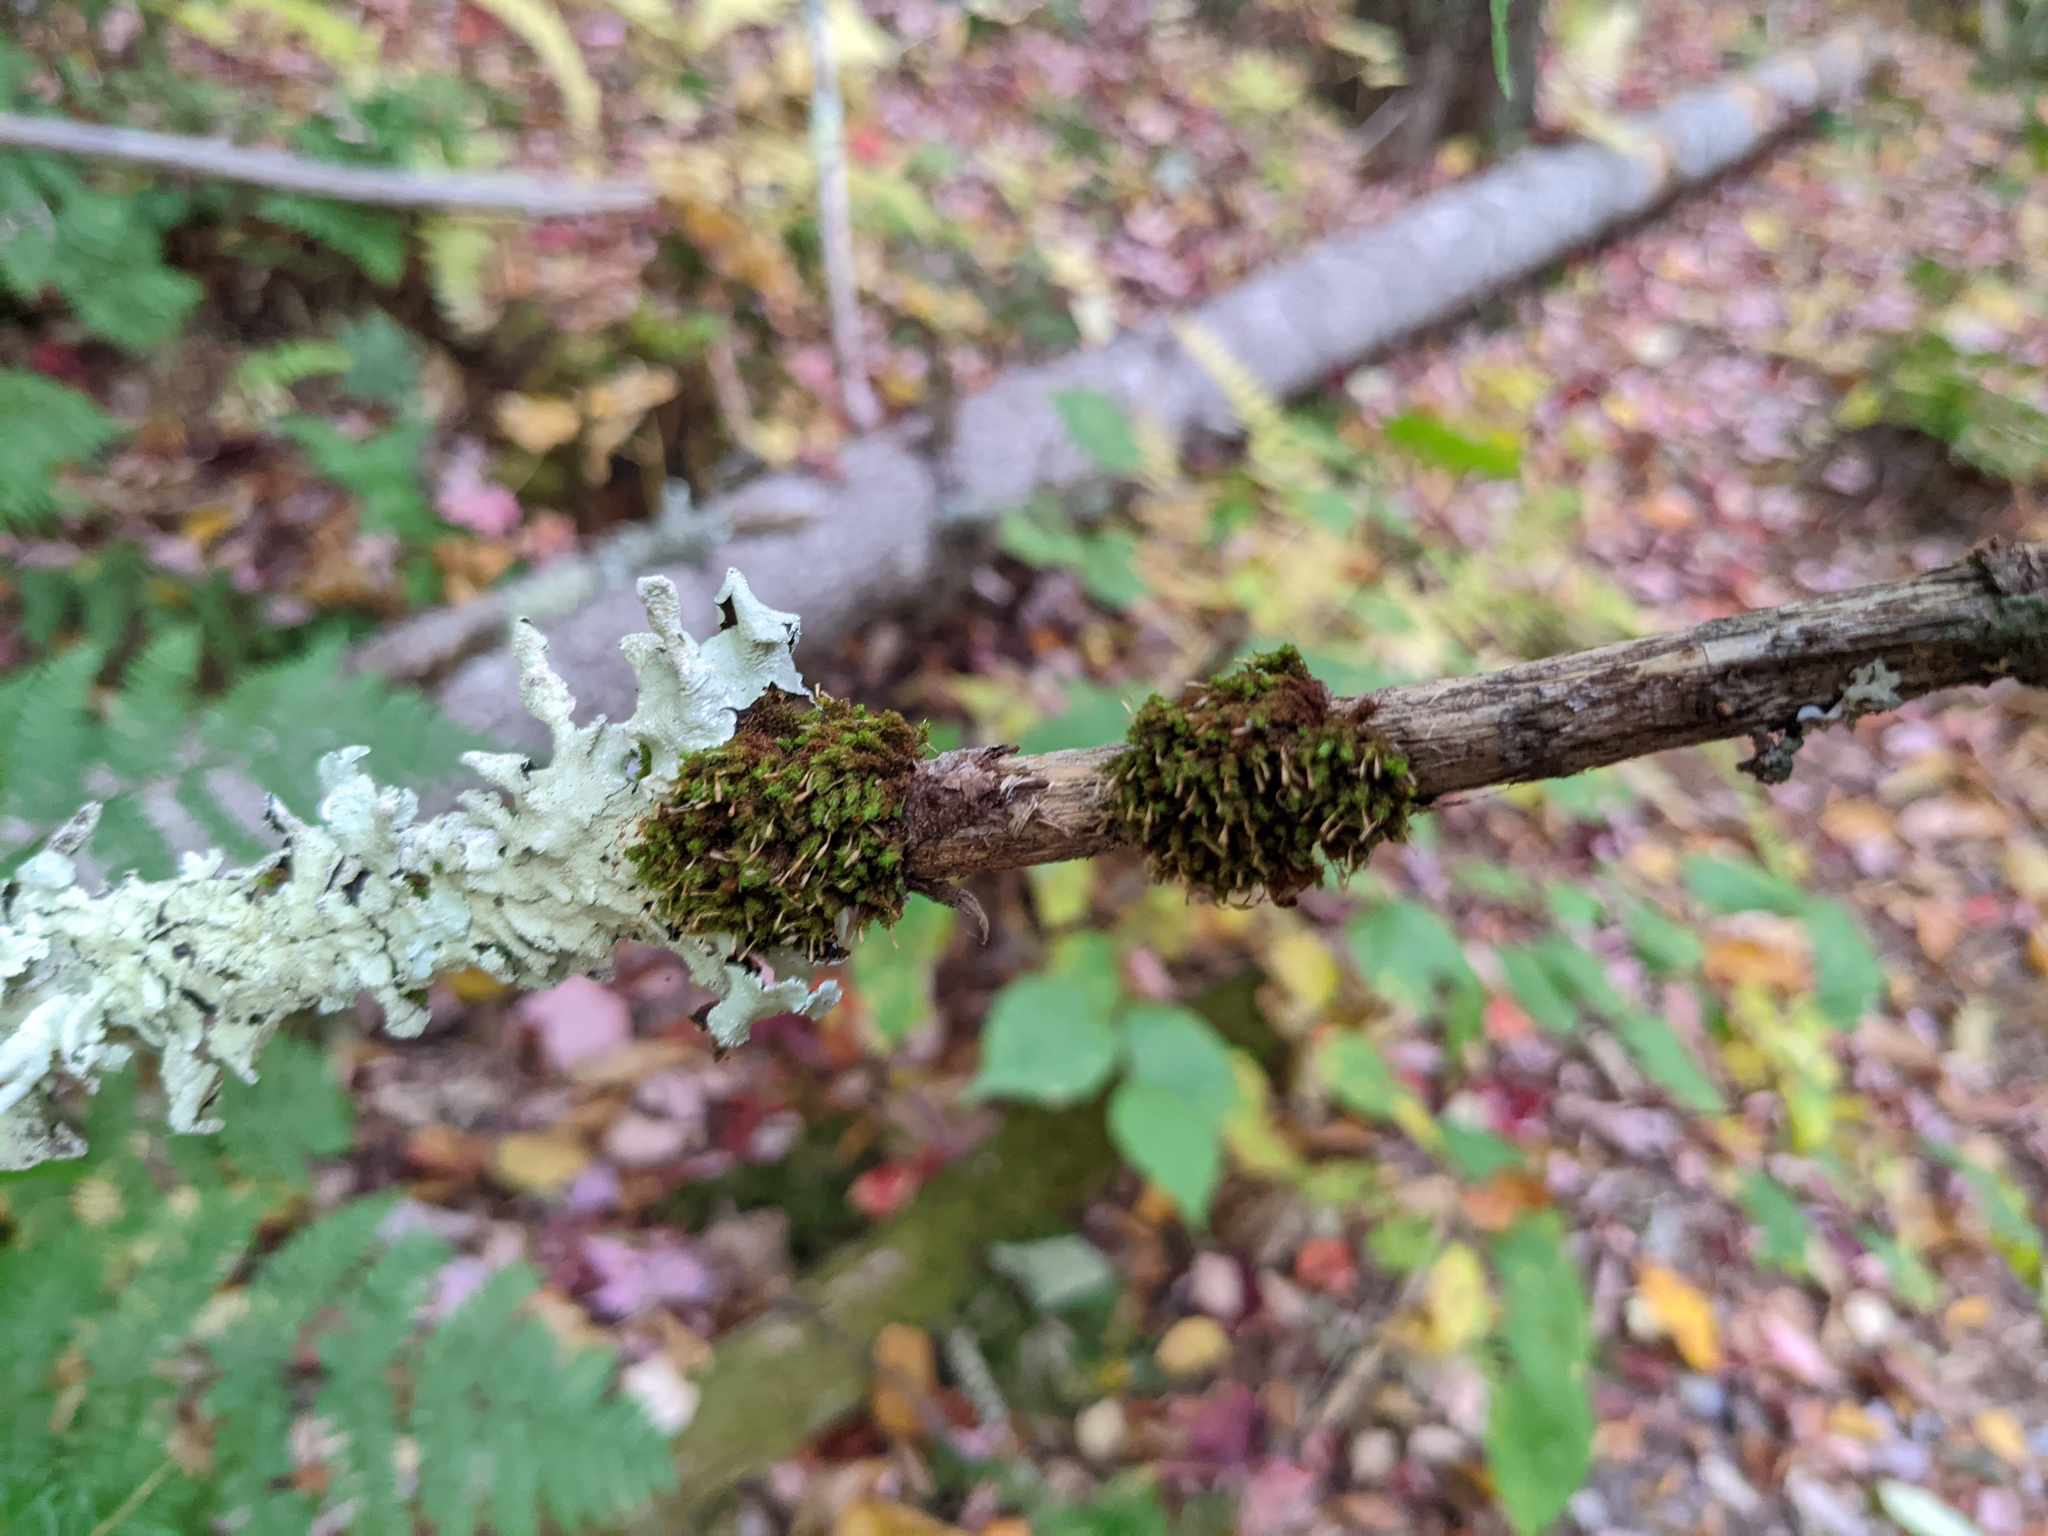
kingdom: Plantae
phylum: Bryophyta
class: Bryopsida
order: Orthotrichales
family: Orthotrichaceae
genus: Ulota
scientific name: Ulota crispa
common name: Crisped pincushion moss
